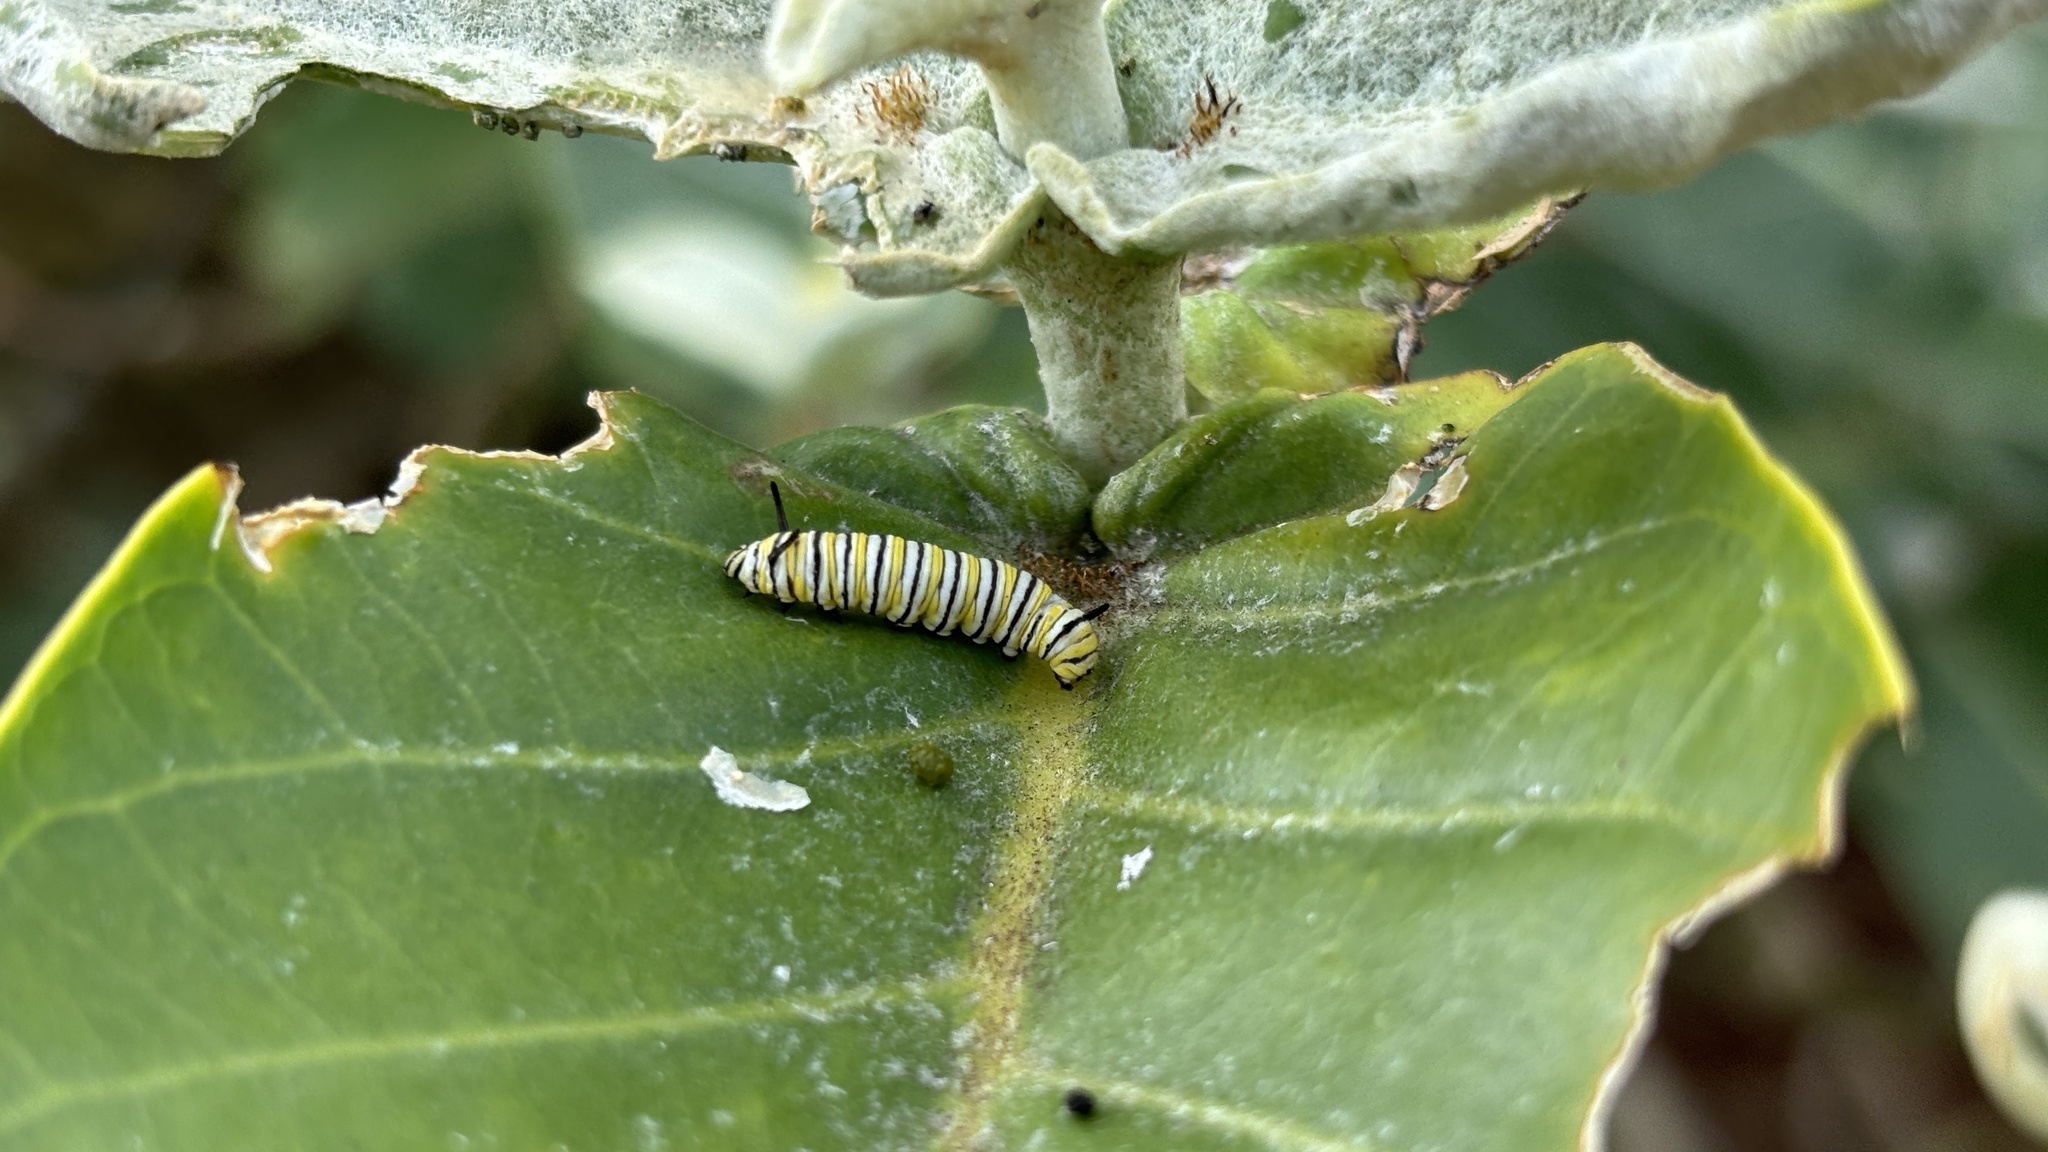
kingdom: Animalia
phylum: Arthropoda
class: Insecta
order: Lepidoptera
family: Nymphalidae
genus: Danaus
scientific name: Danaus plexippus
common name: Monarch
